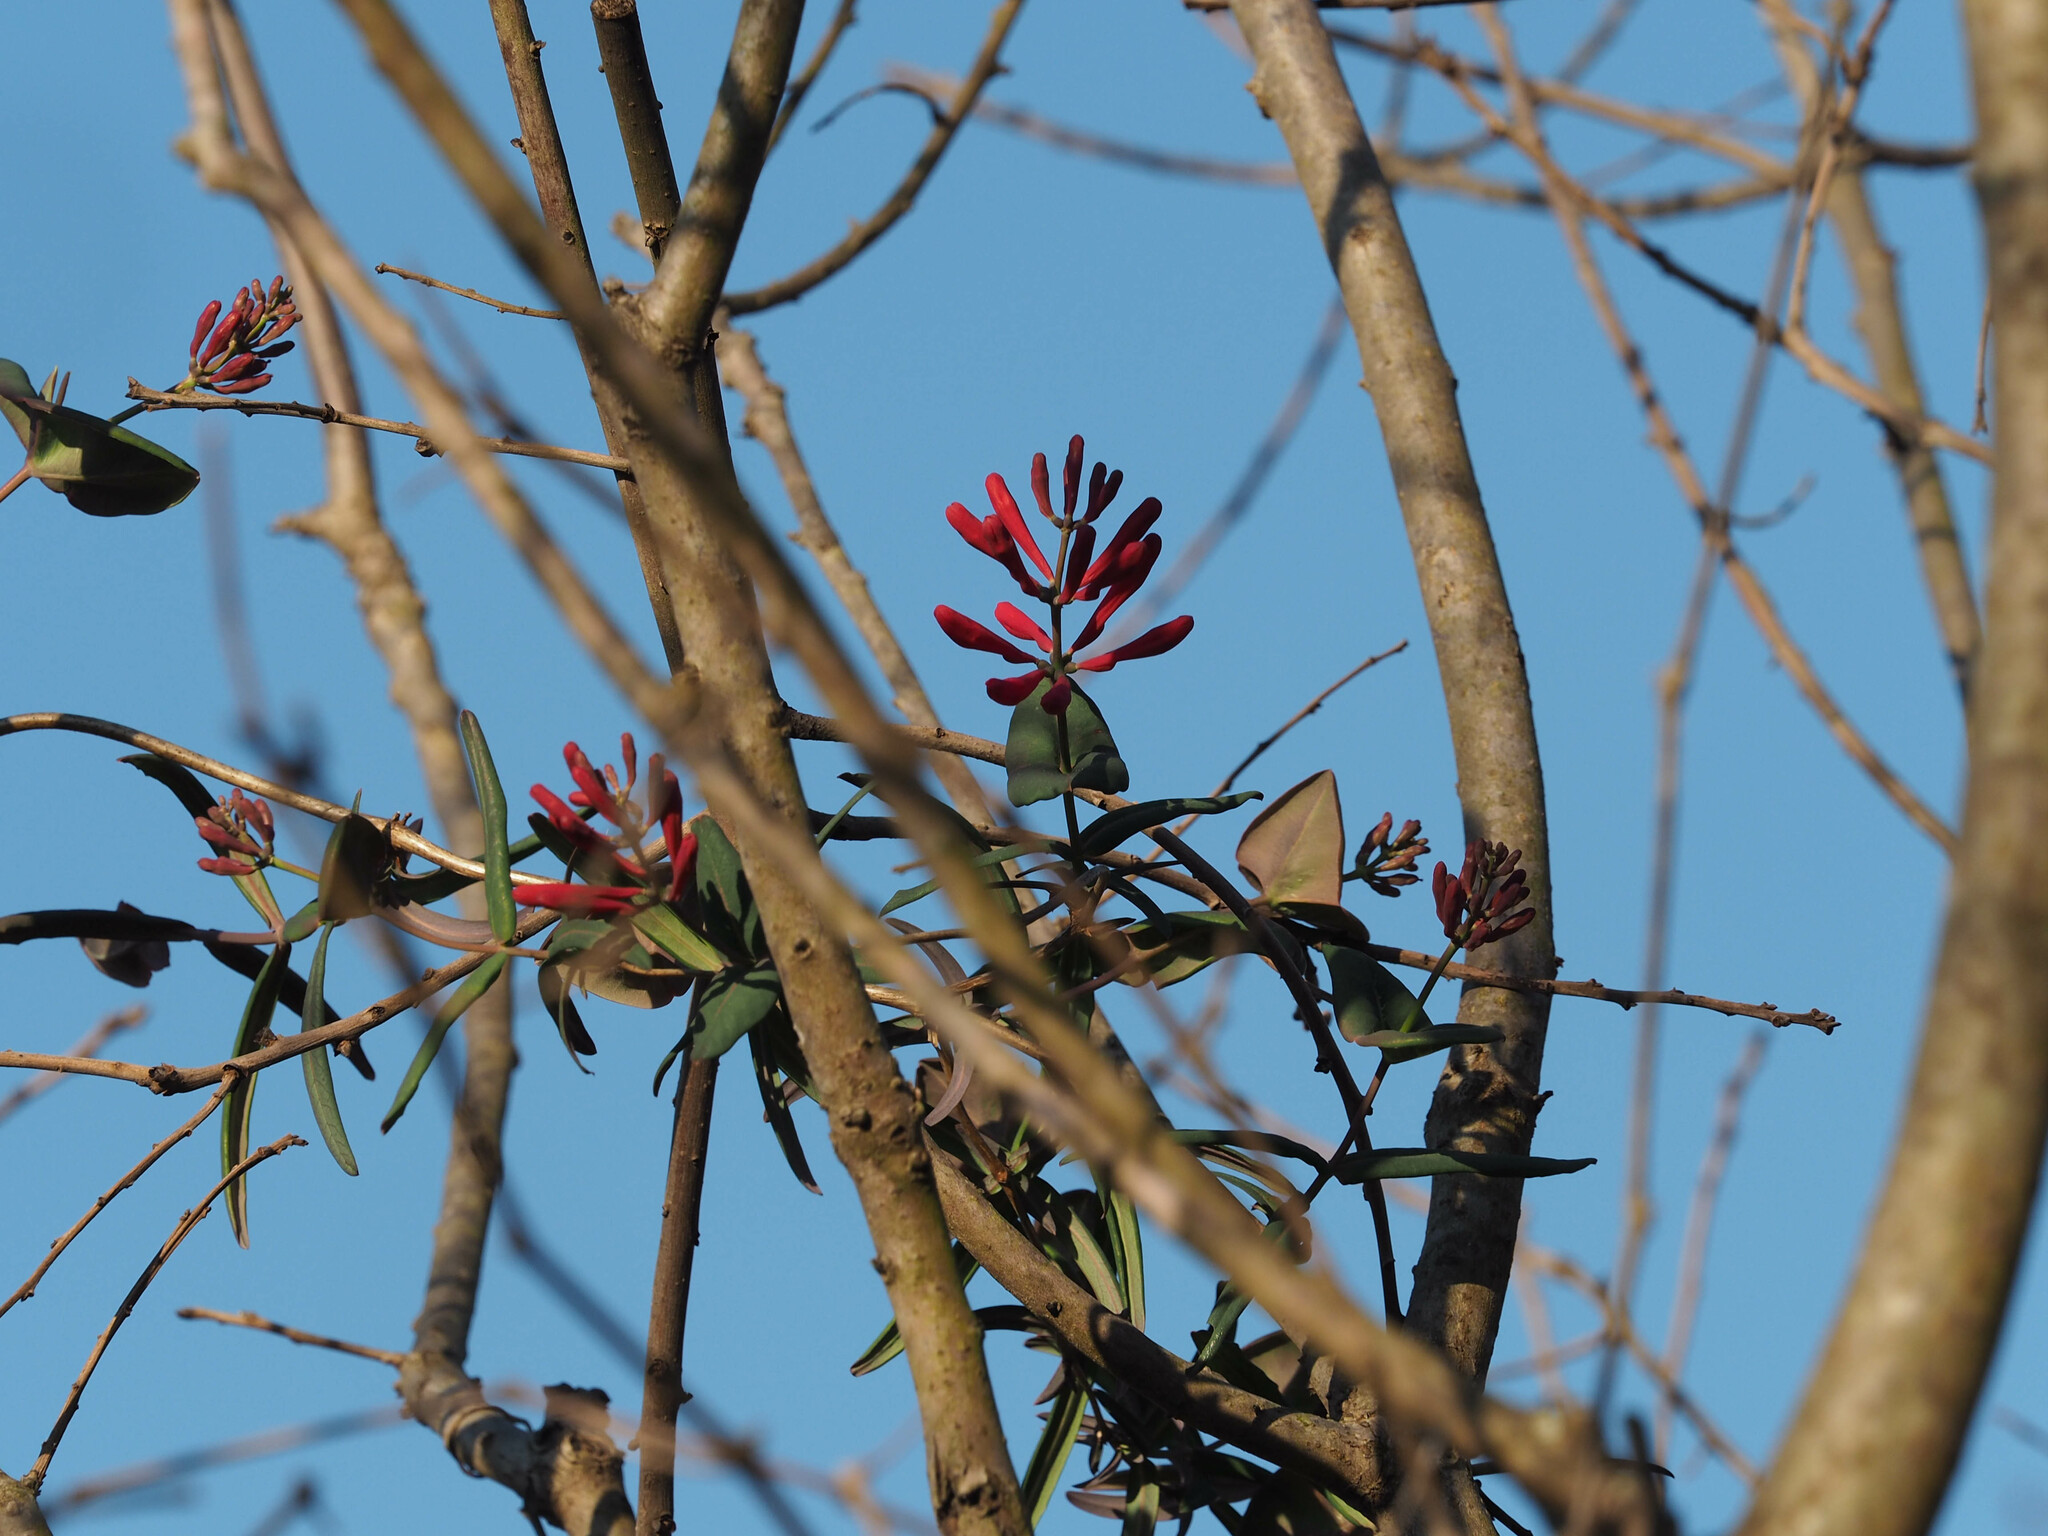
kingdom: Plantae
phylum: Tracheophyta
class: Magnoliopsida
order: Dipsacales
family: Caprifoliaceae
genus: Lonicera
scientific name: Lonicera sempervirens
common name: Coral honeysuckle
